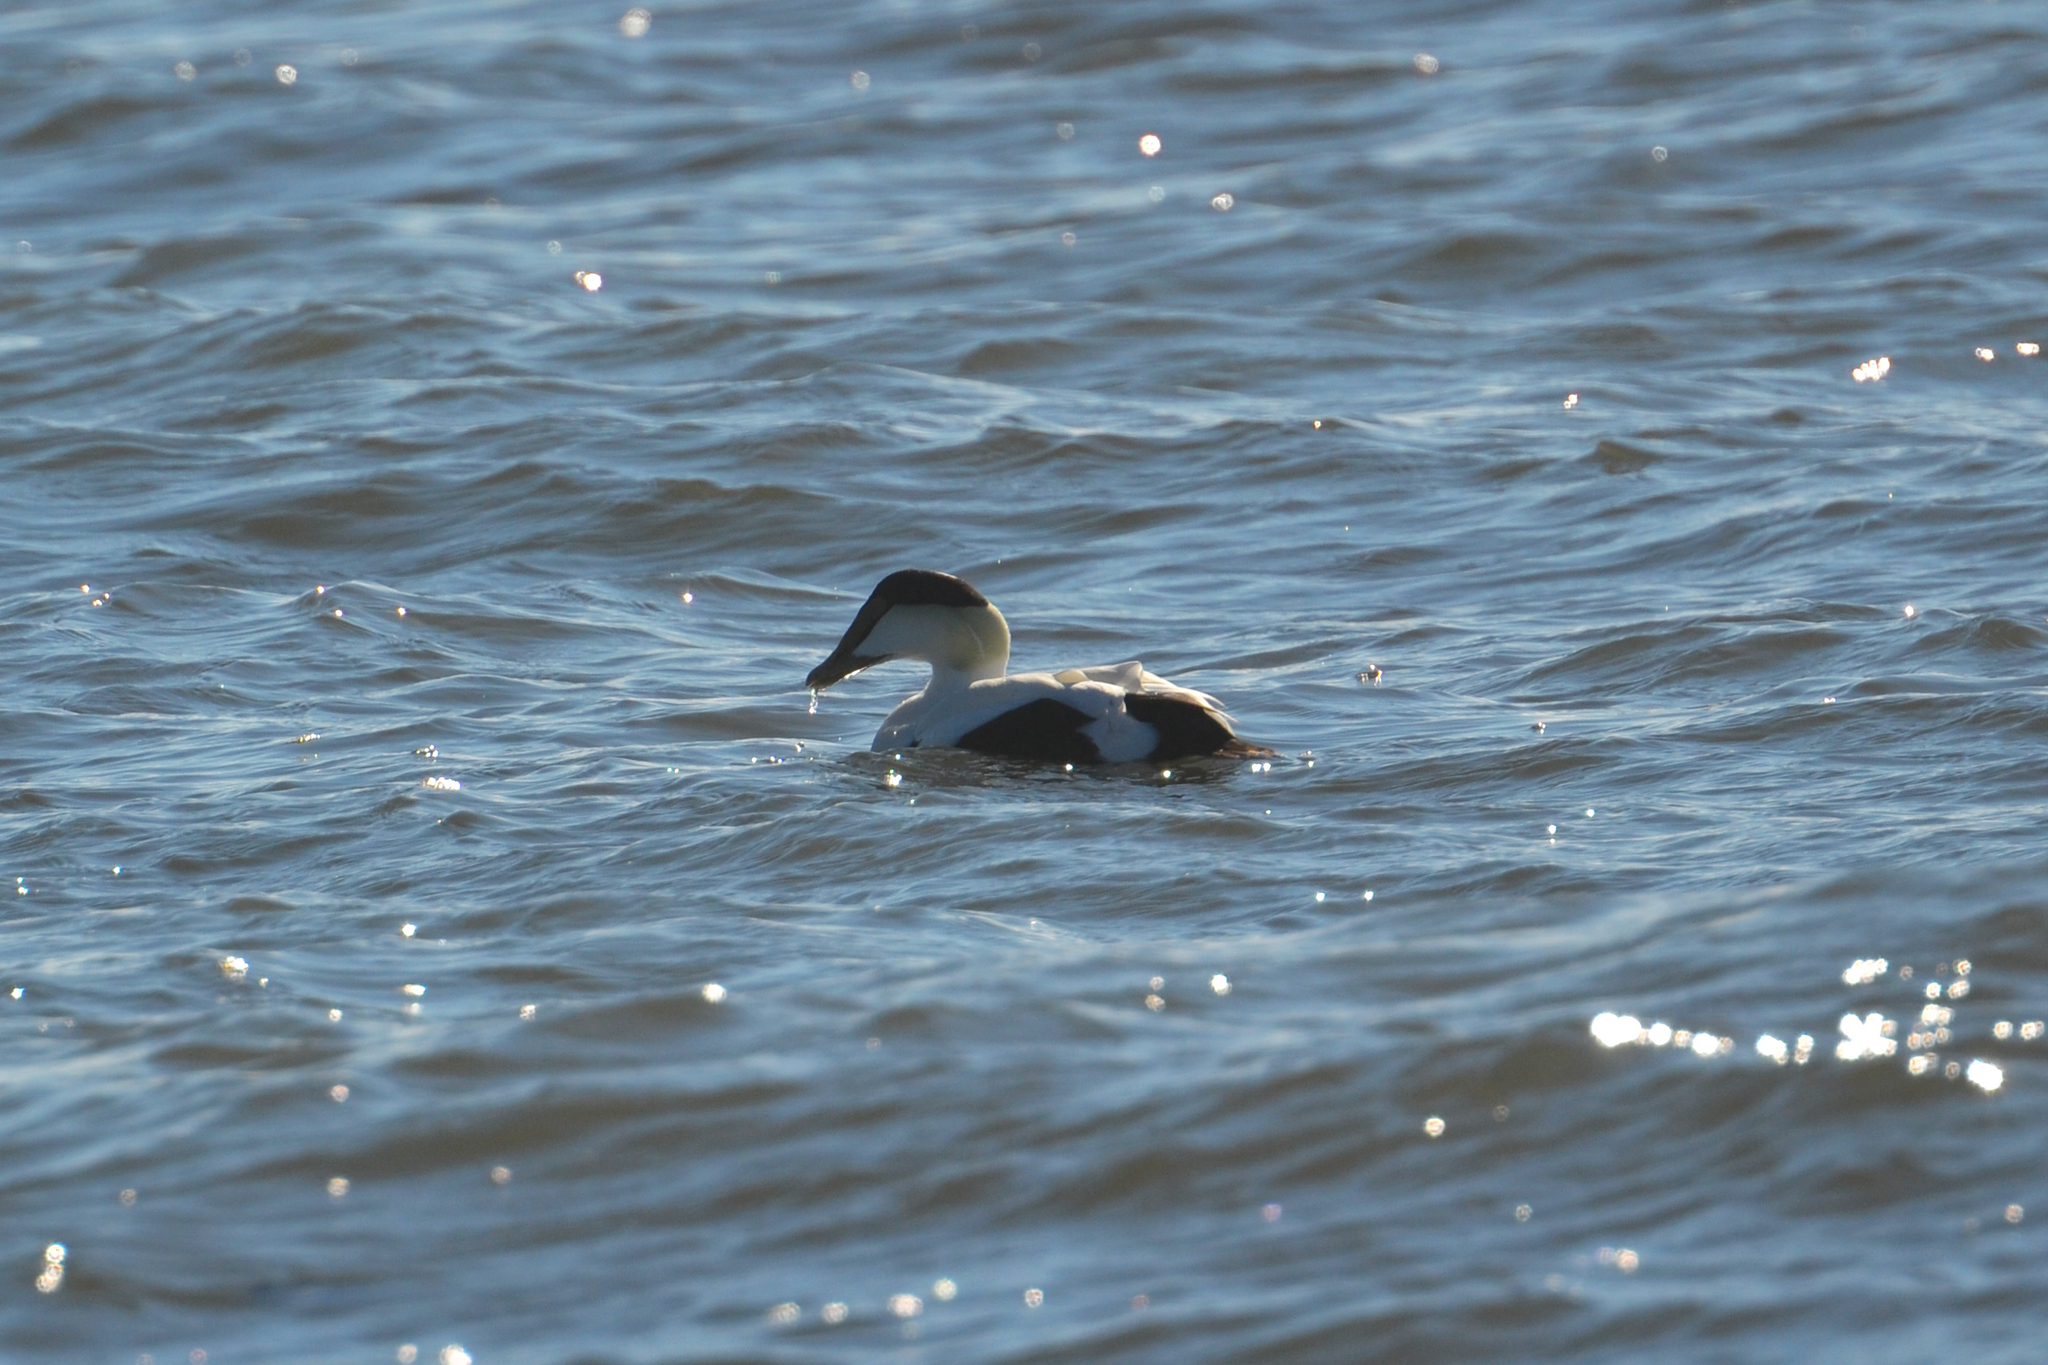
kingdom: Animalia
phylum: Chordata
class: Aves
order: Anseriformes
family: Anatidae
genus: Somateria
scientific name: Somateria mollissima
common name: Common eider
